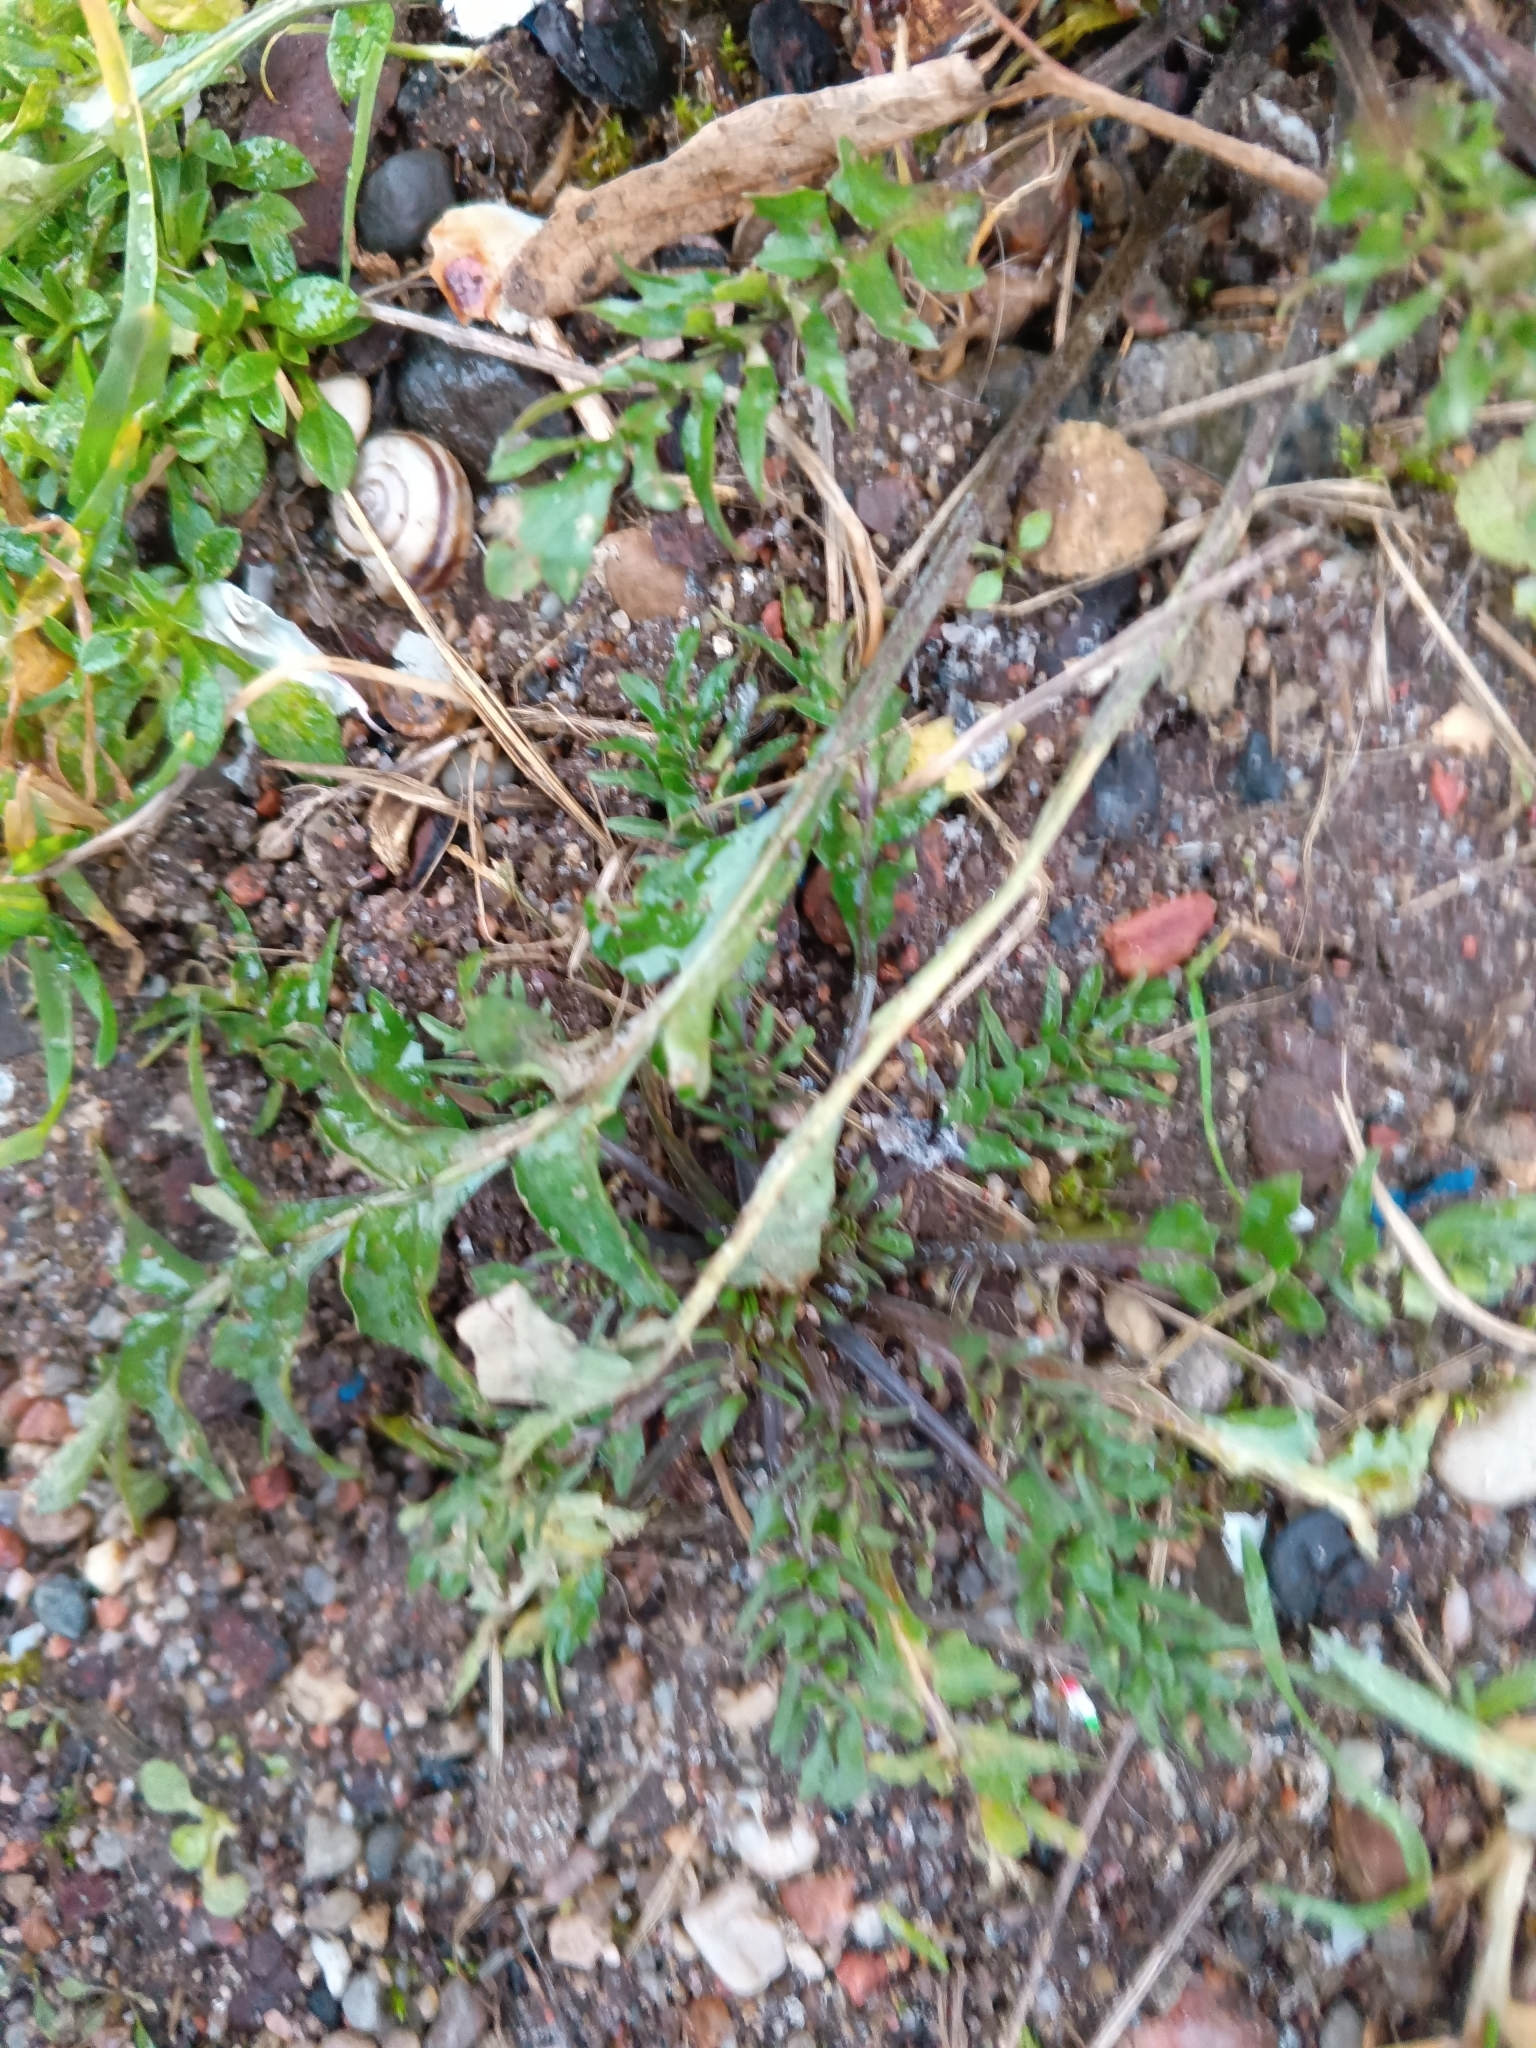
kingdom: Plantae
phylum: Tracheophyta
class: Magnoliopsida
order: Brassicales
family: Brassicaceae
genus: Capsella
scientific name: Capsella bursa-pastoris
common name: Shepherd's purse
